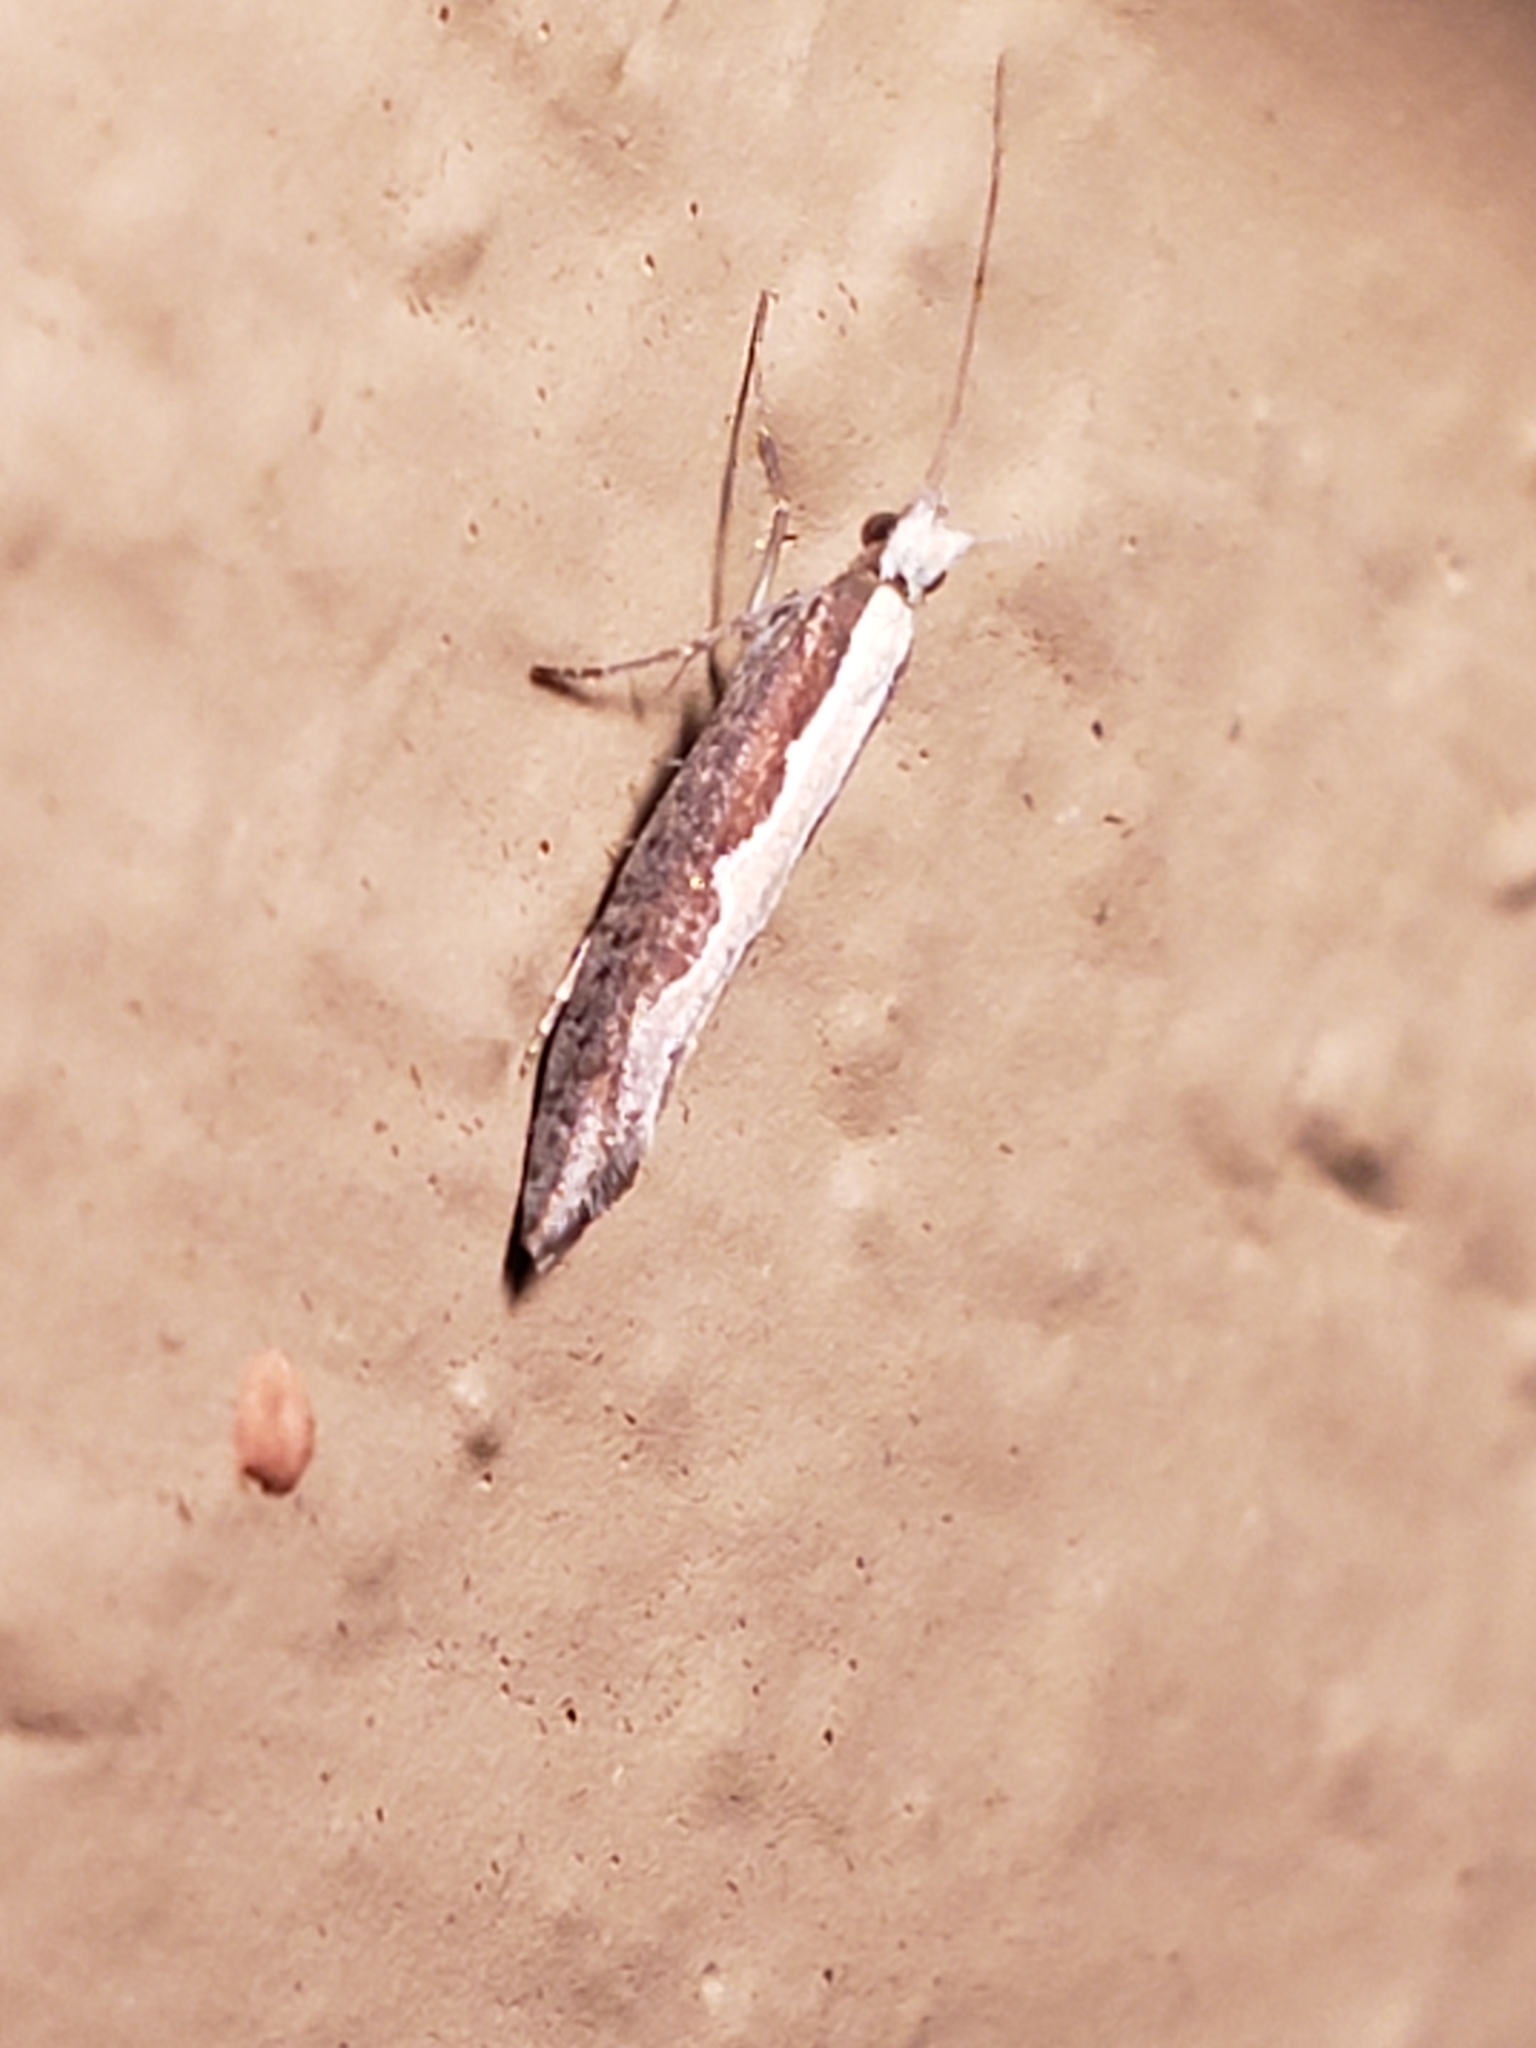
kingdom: Animalia
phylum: Arthropoda
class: Insecta
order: Lepidoptera
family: Plutellidae
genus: Plutella
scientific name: Plutella xylostella
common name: Diamond-back moth
